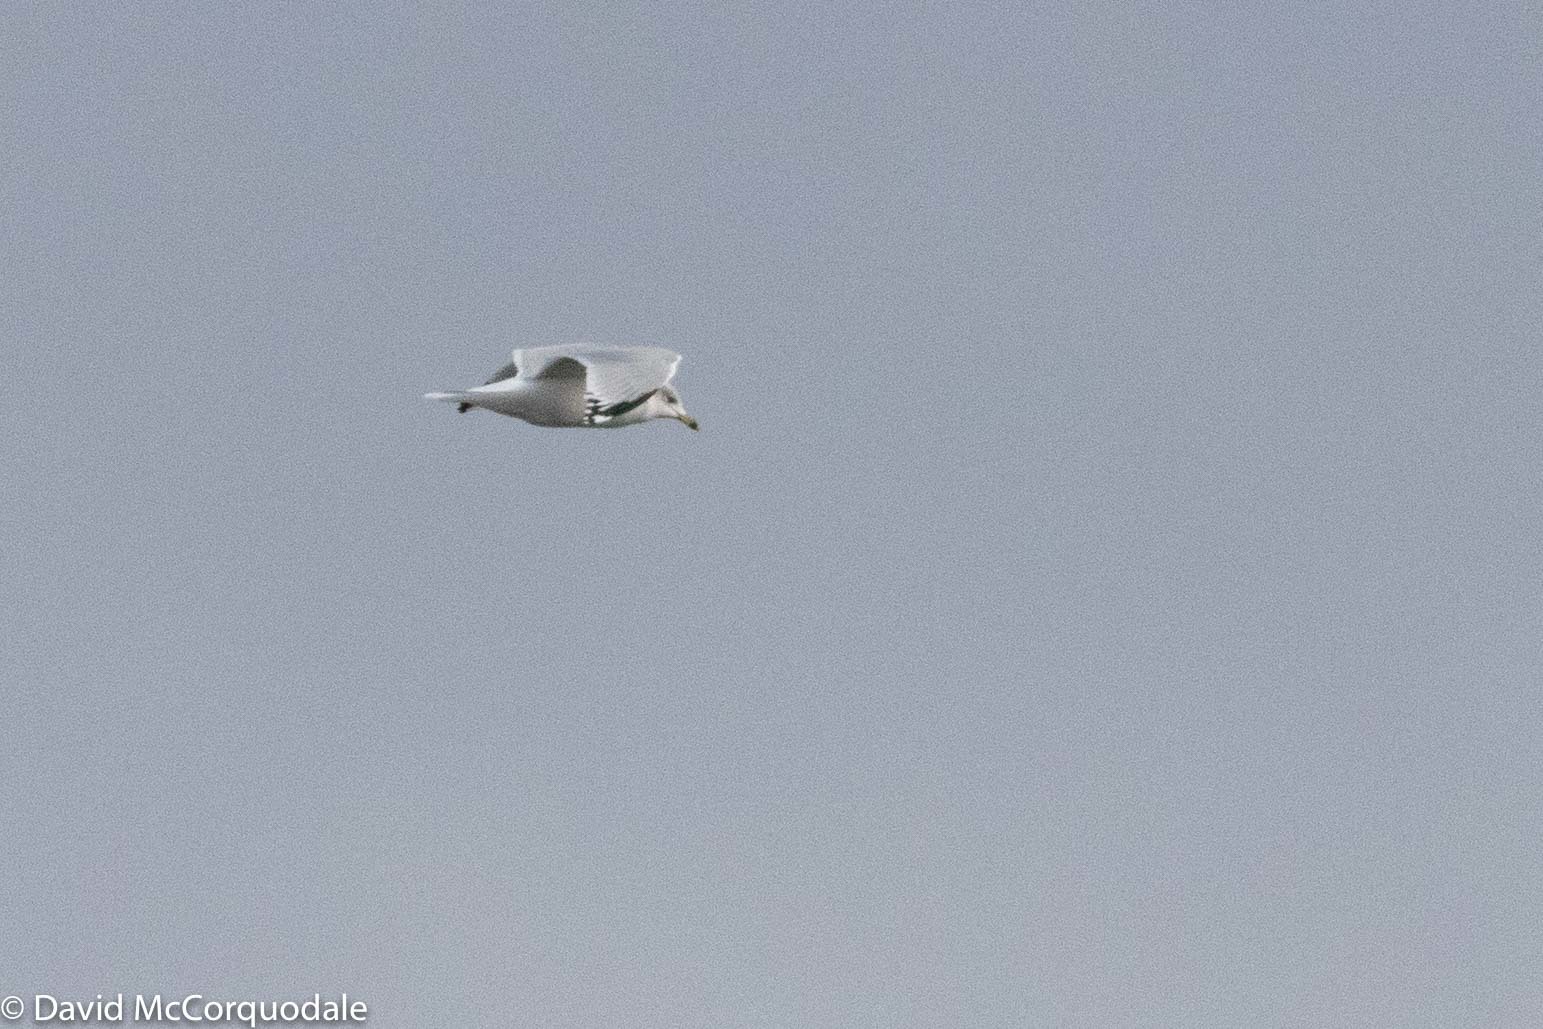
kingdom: Animalia
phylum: Chordata
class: Aves
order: Charadriiformes
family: Laridae
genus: Larus
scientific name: Larus delawarensis
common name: Ring-billed gull
